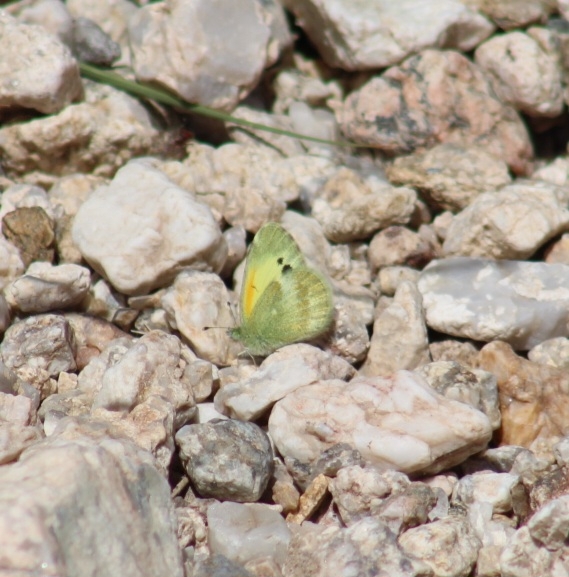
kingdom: Animalia
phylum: Arthropoda
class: Insecta
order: Lepidoptera
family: Pieridae
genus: Nathalis
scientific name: Nathalis iole
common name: Dainty sulphur
